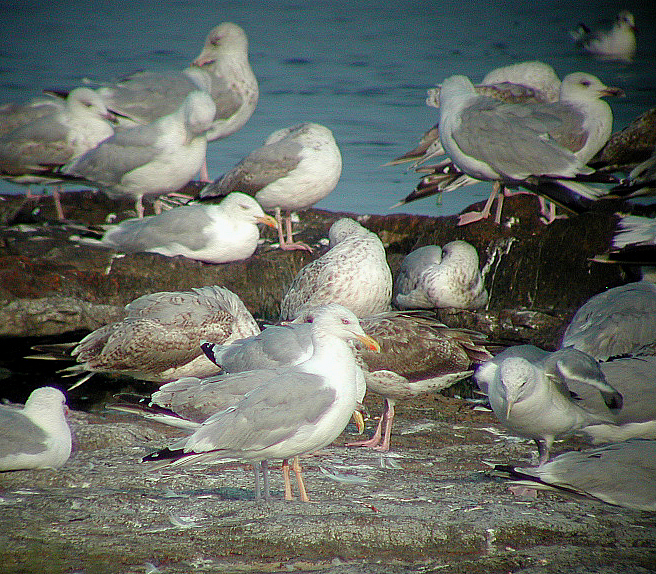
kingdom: Animalia
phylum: Chordata
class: Aves
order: Charadriiformes
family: Laridae
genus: Larus
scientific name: Larus argentatus
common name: Herring gull
